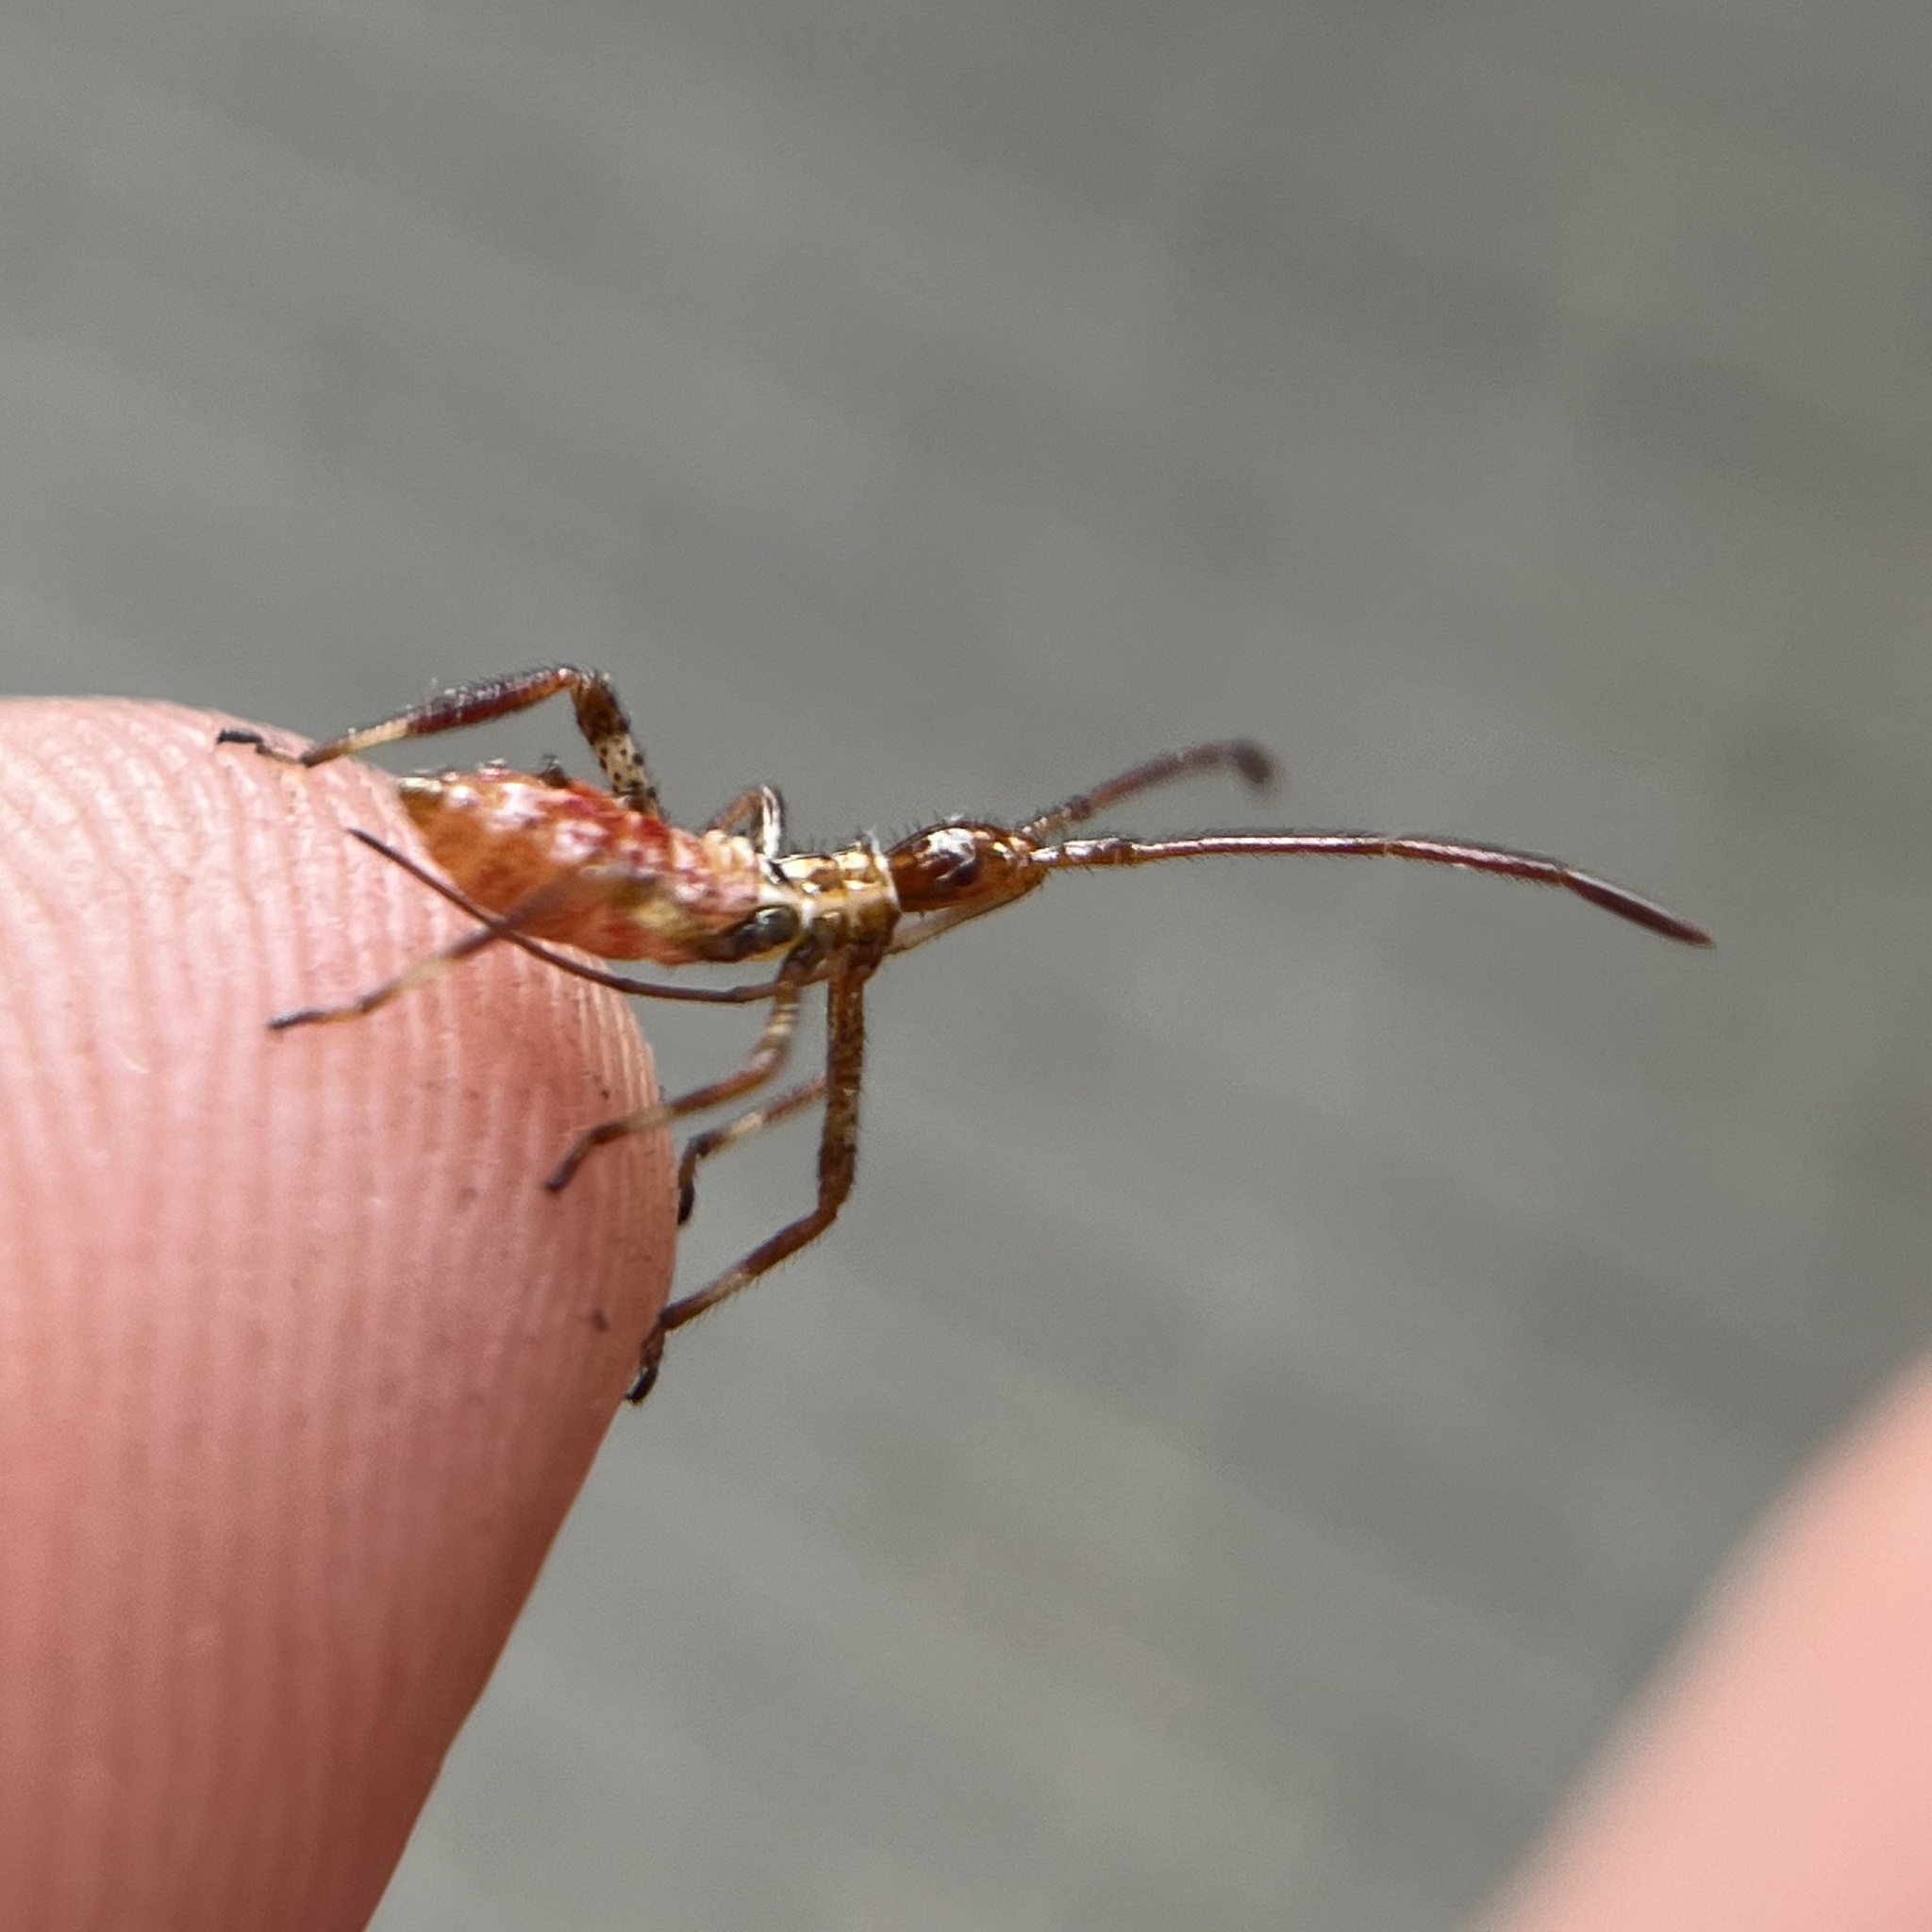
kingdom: Animalia
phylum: Arthropoda
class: Insecta
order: Hemiptera
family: Coreidae
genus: Leptoglossus
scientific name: Leptoglossus occidentalis
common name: Western conifer-seed bug
